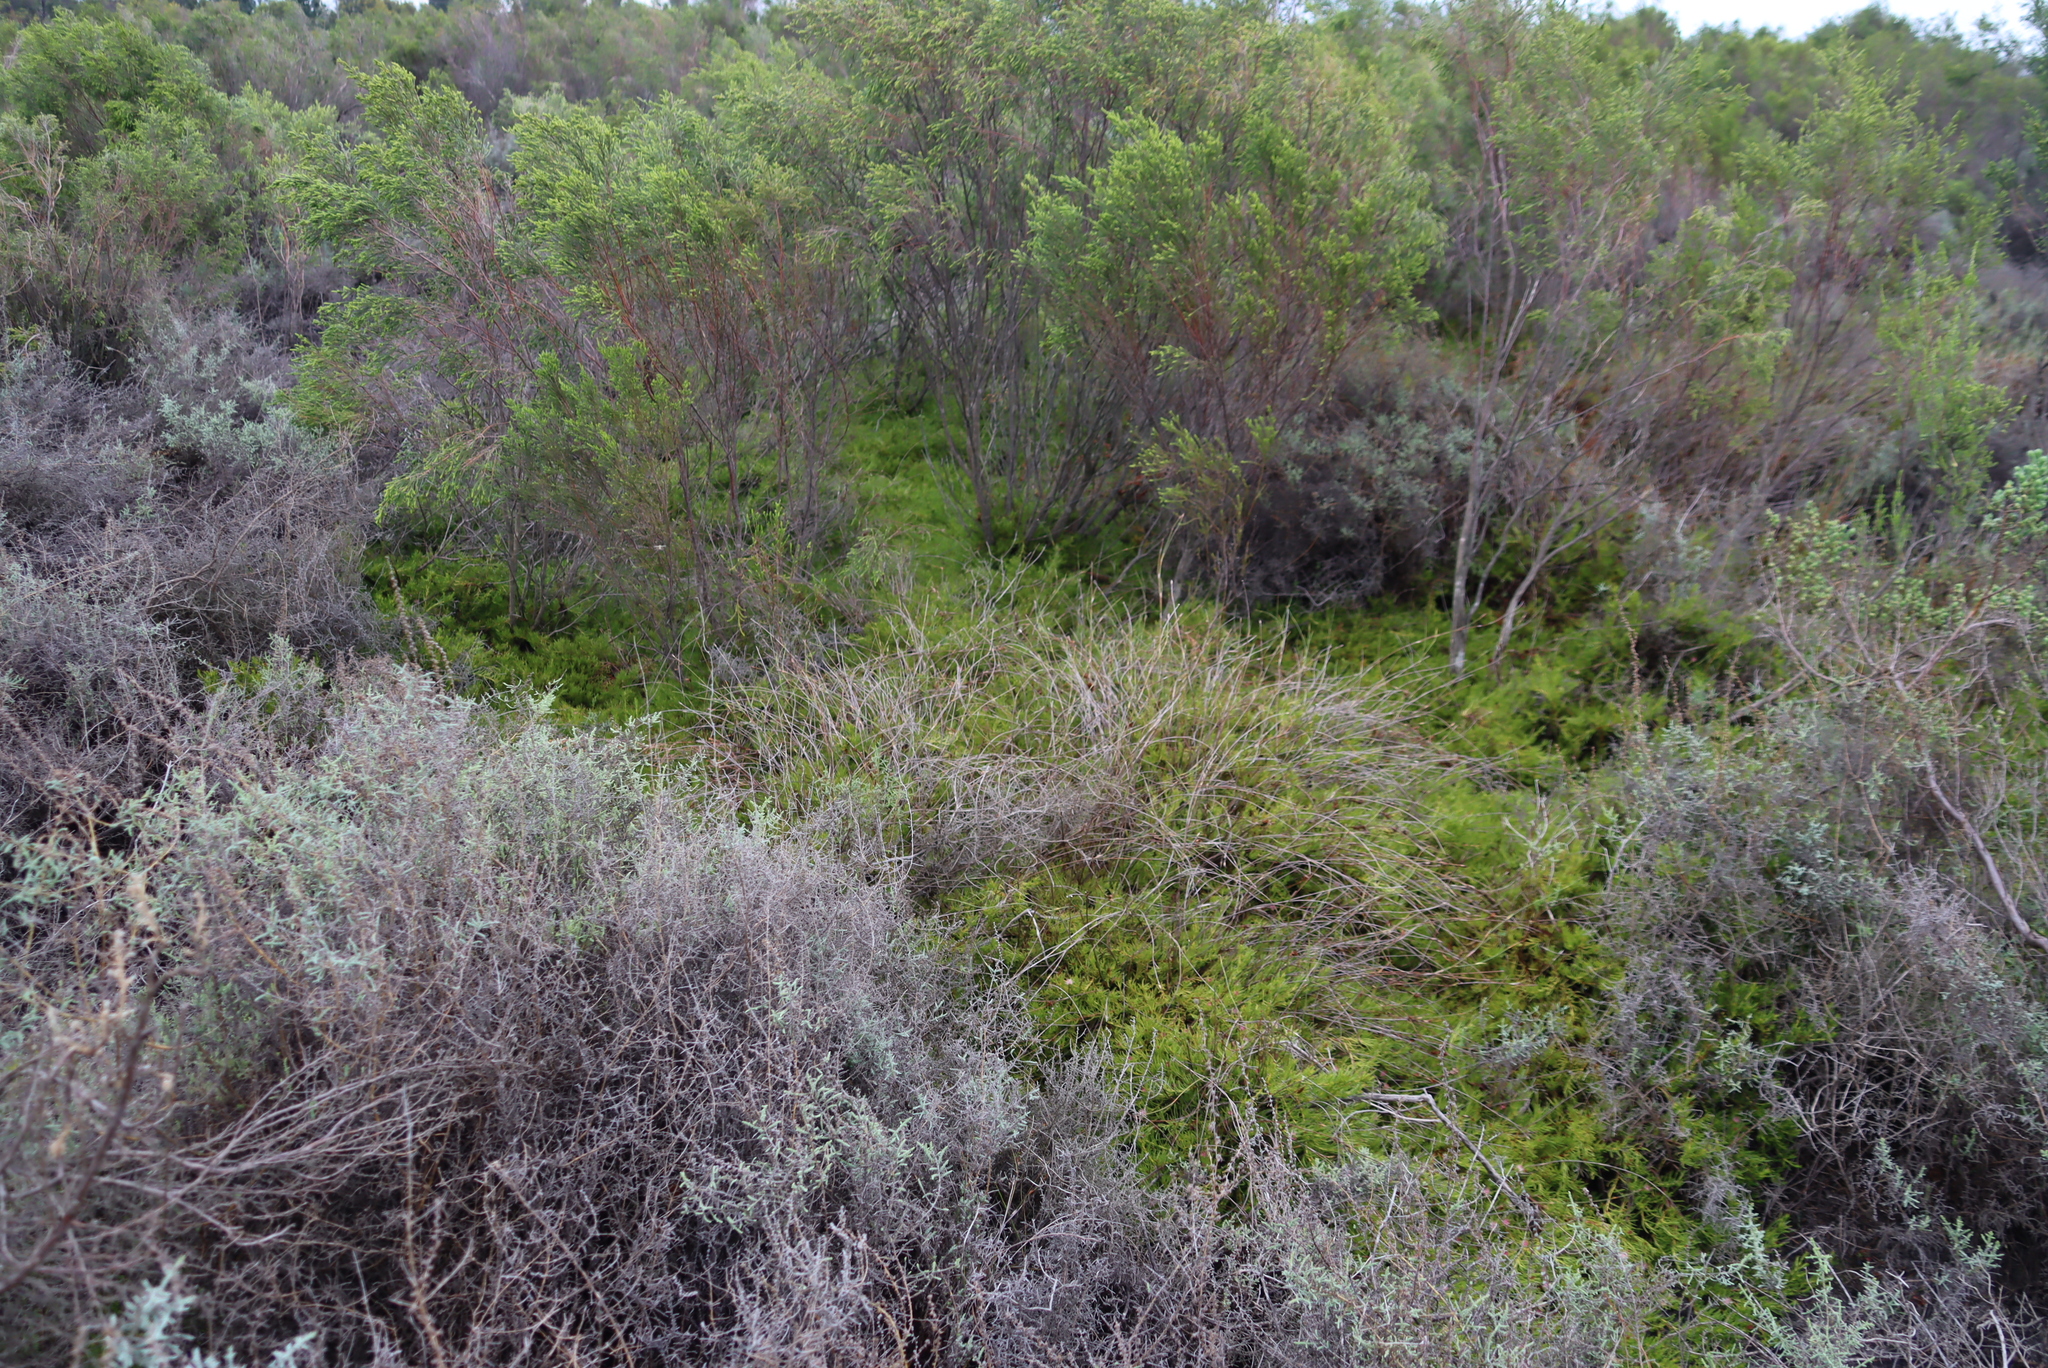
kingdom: Plantae
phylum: Tracheophyta
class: Magnoliopsida
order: Proteales
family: Proteaceae
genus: Diastella
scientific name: Diastella buekii
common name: Franschhoek silkypuff
